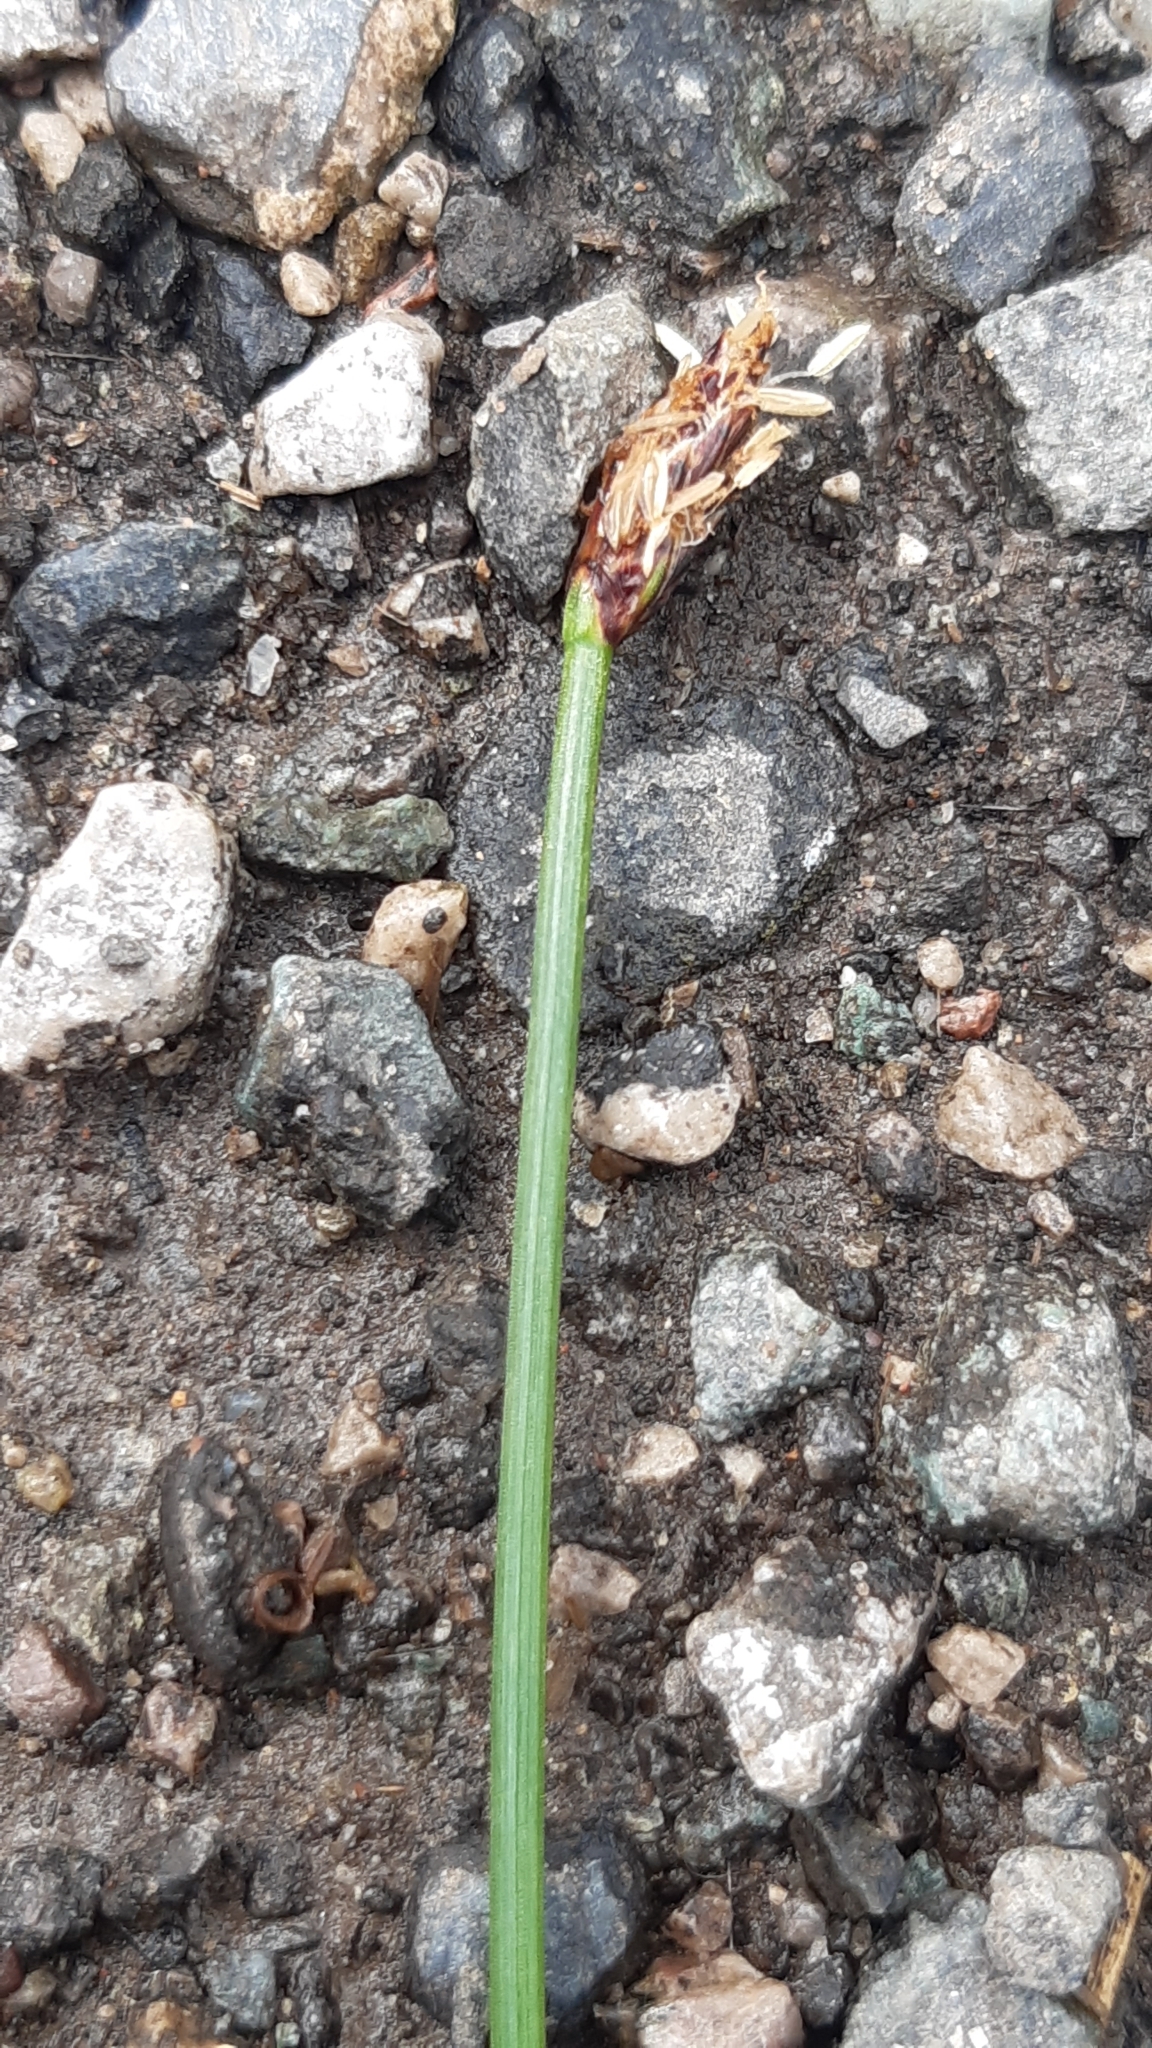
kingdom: Plantae
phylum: Tracheophyta
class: Liliopsida
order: Poales
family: Cyperaceae
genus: Eleocharis
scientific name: Eleocharis palustris
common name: Common spike-rush
